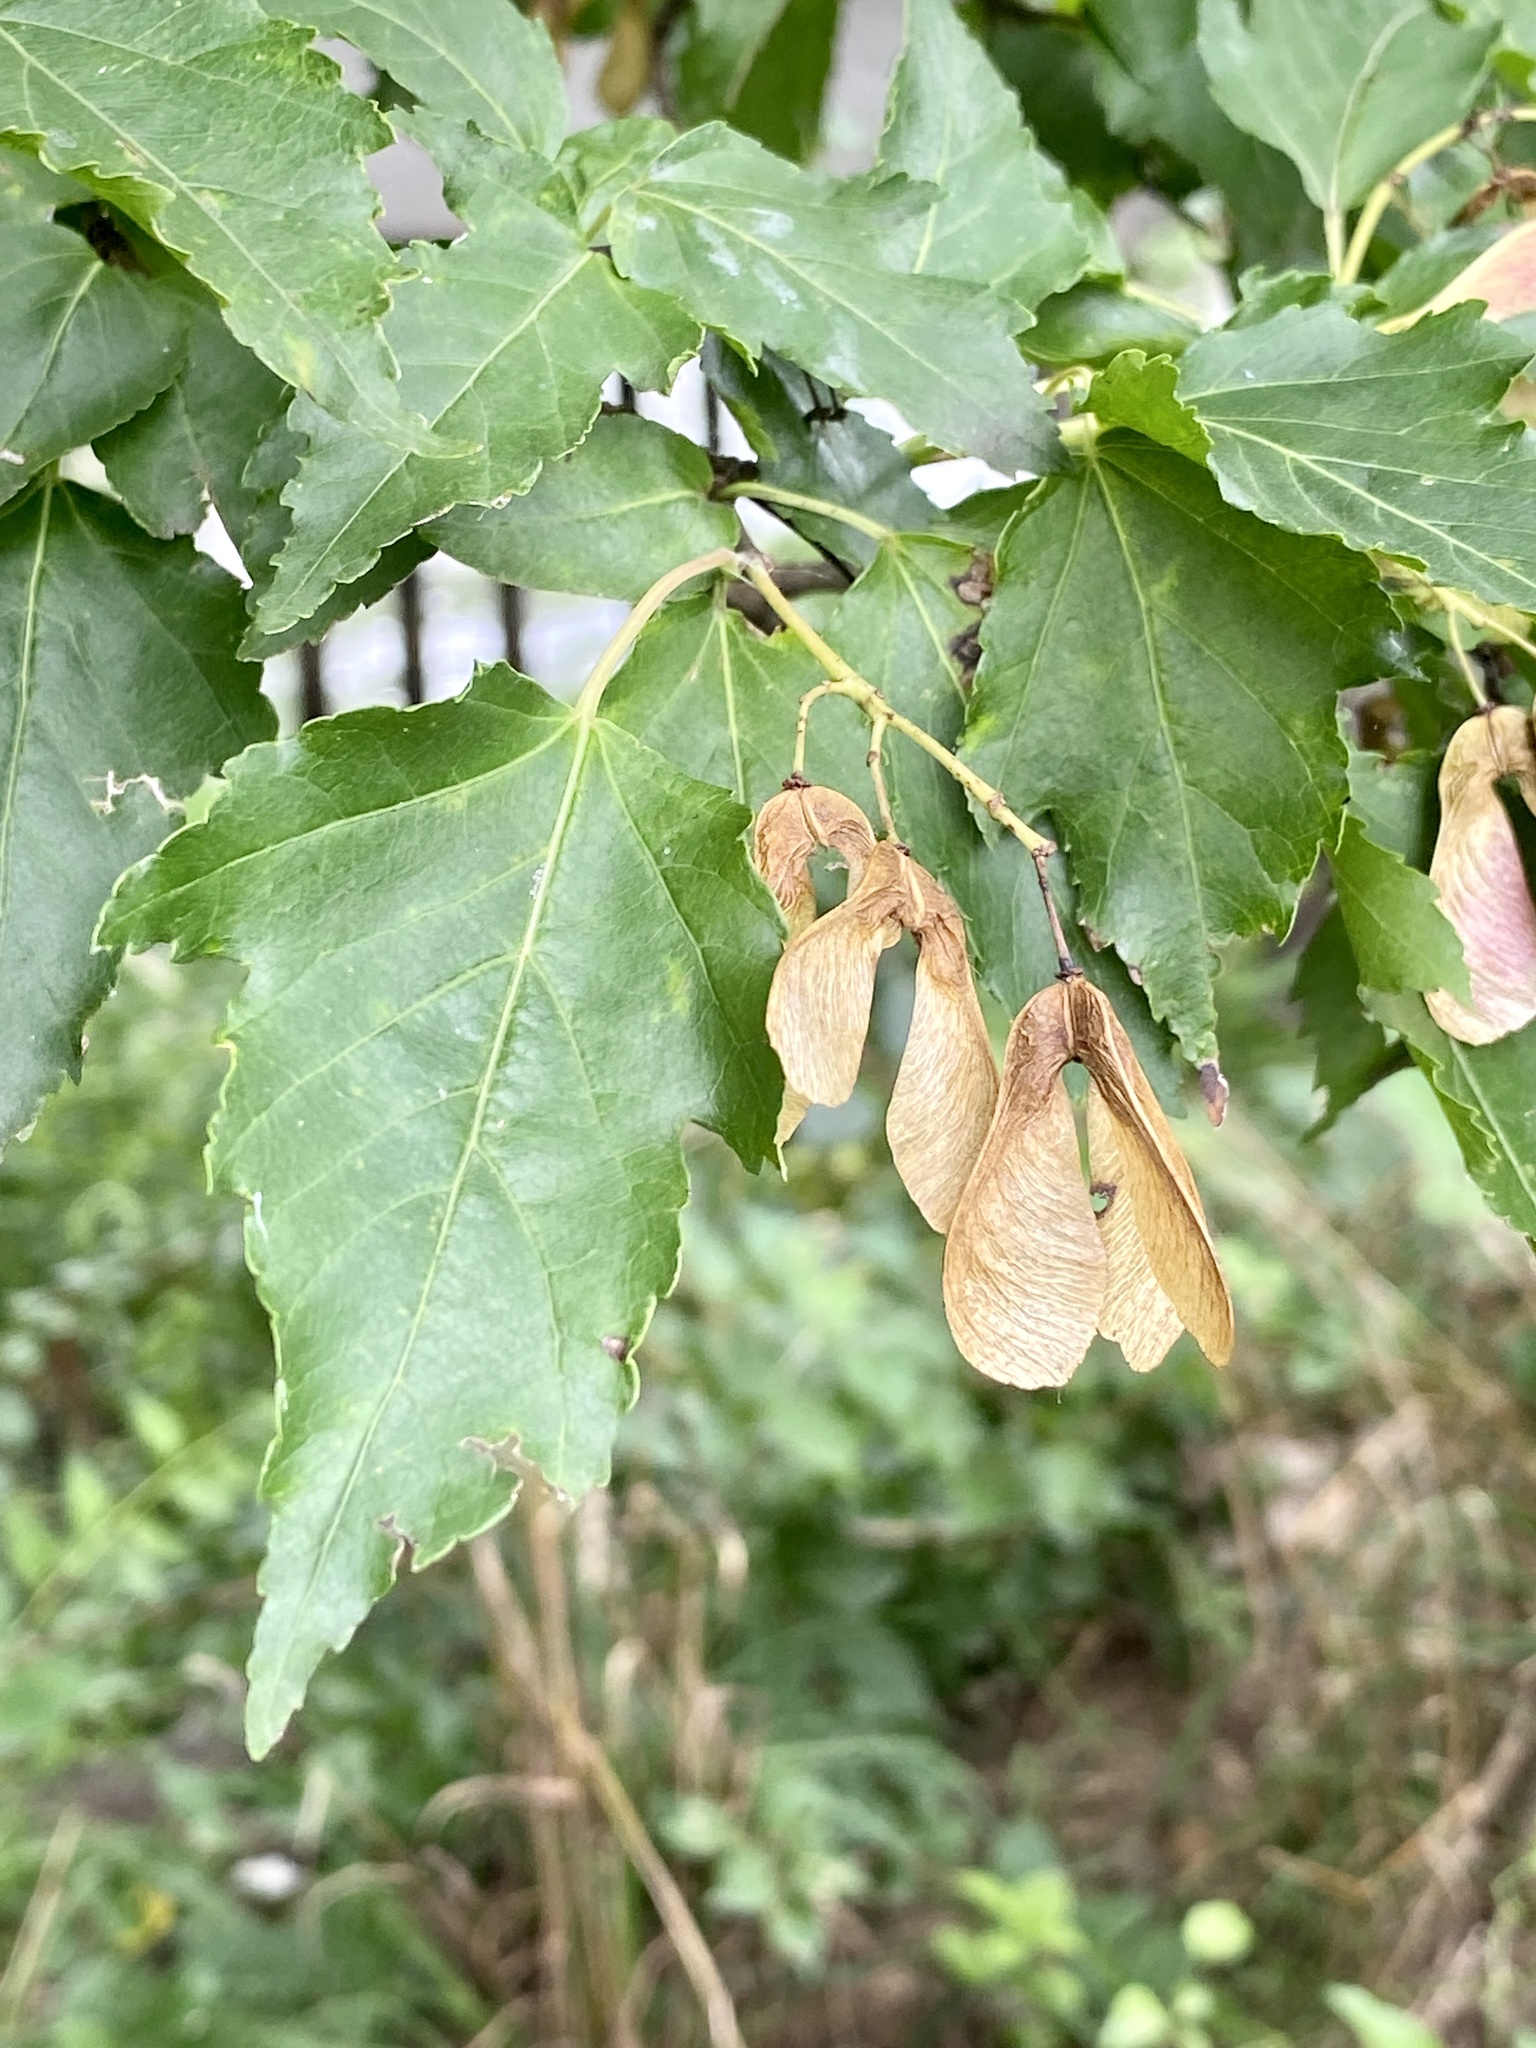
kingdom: Plantae
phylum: Tracheophyta
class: Magnoliopsida
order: Sapindales
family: Sapindaceae
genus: Acer
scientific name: Acer tataricum
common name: Tartar maple
